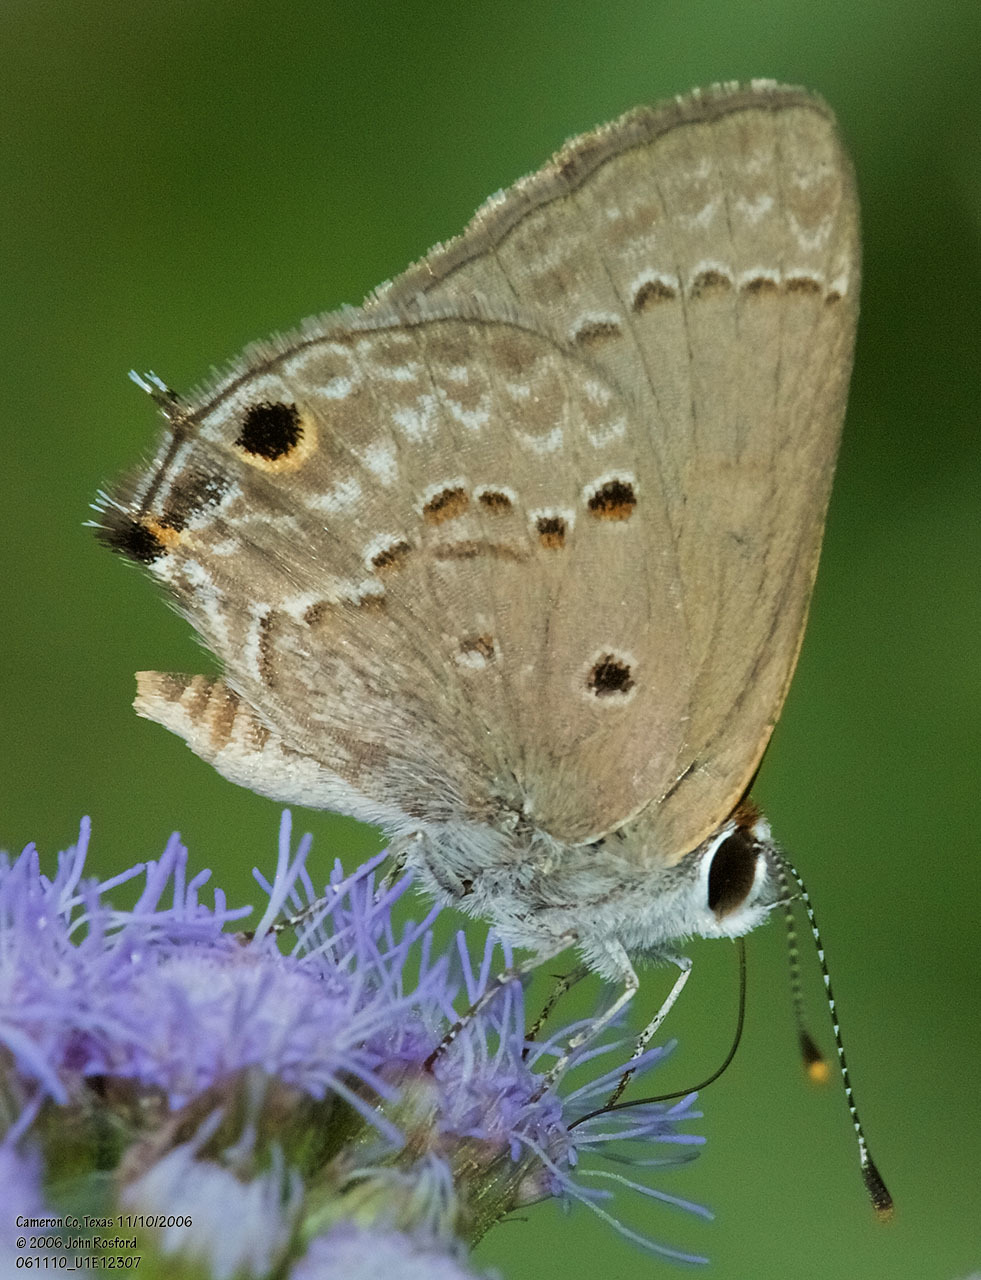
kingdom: Animalia
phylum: Arthropoda
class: Insecta
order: Lepidoptera
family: Lycaenidae
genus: Callicista
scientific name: Callicista columella
